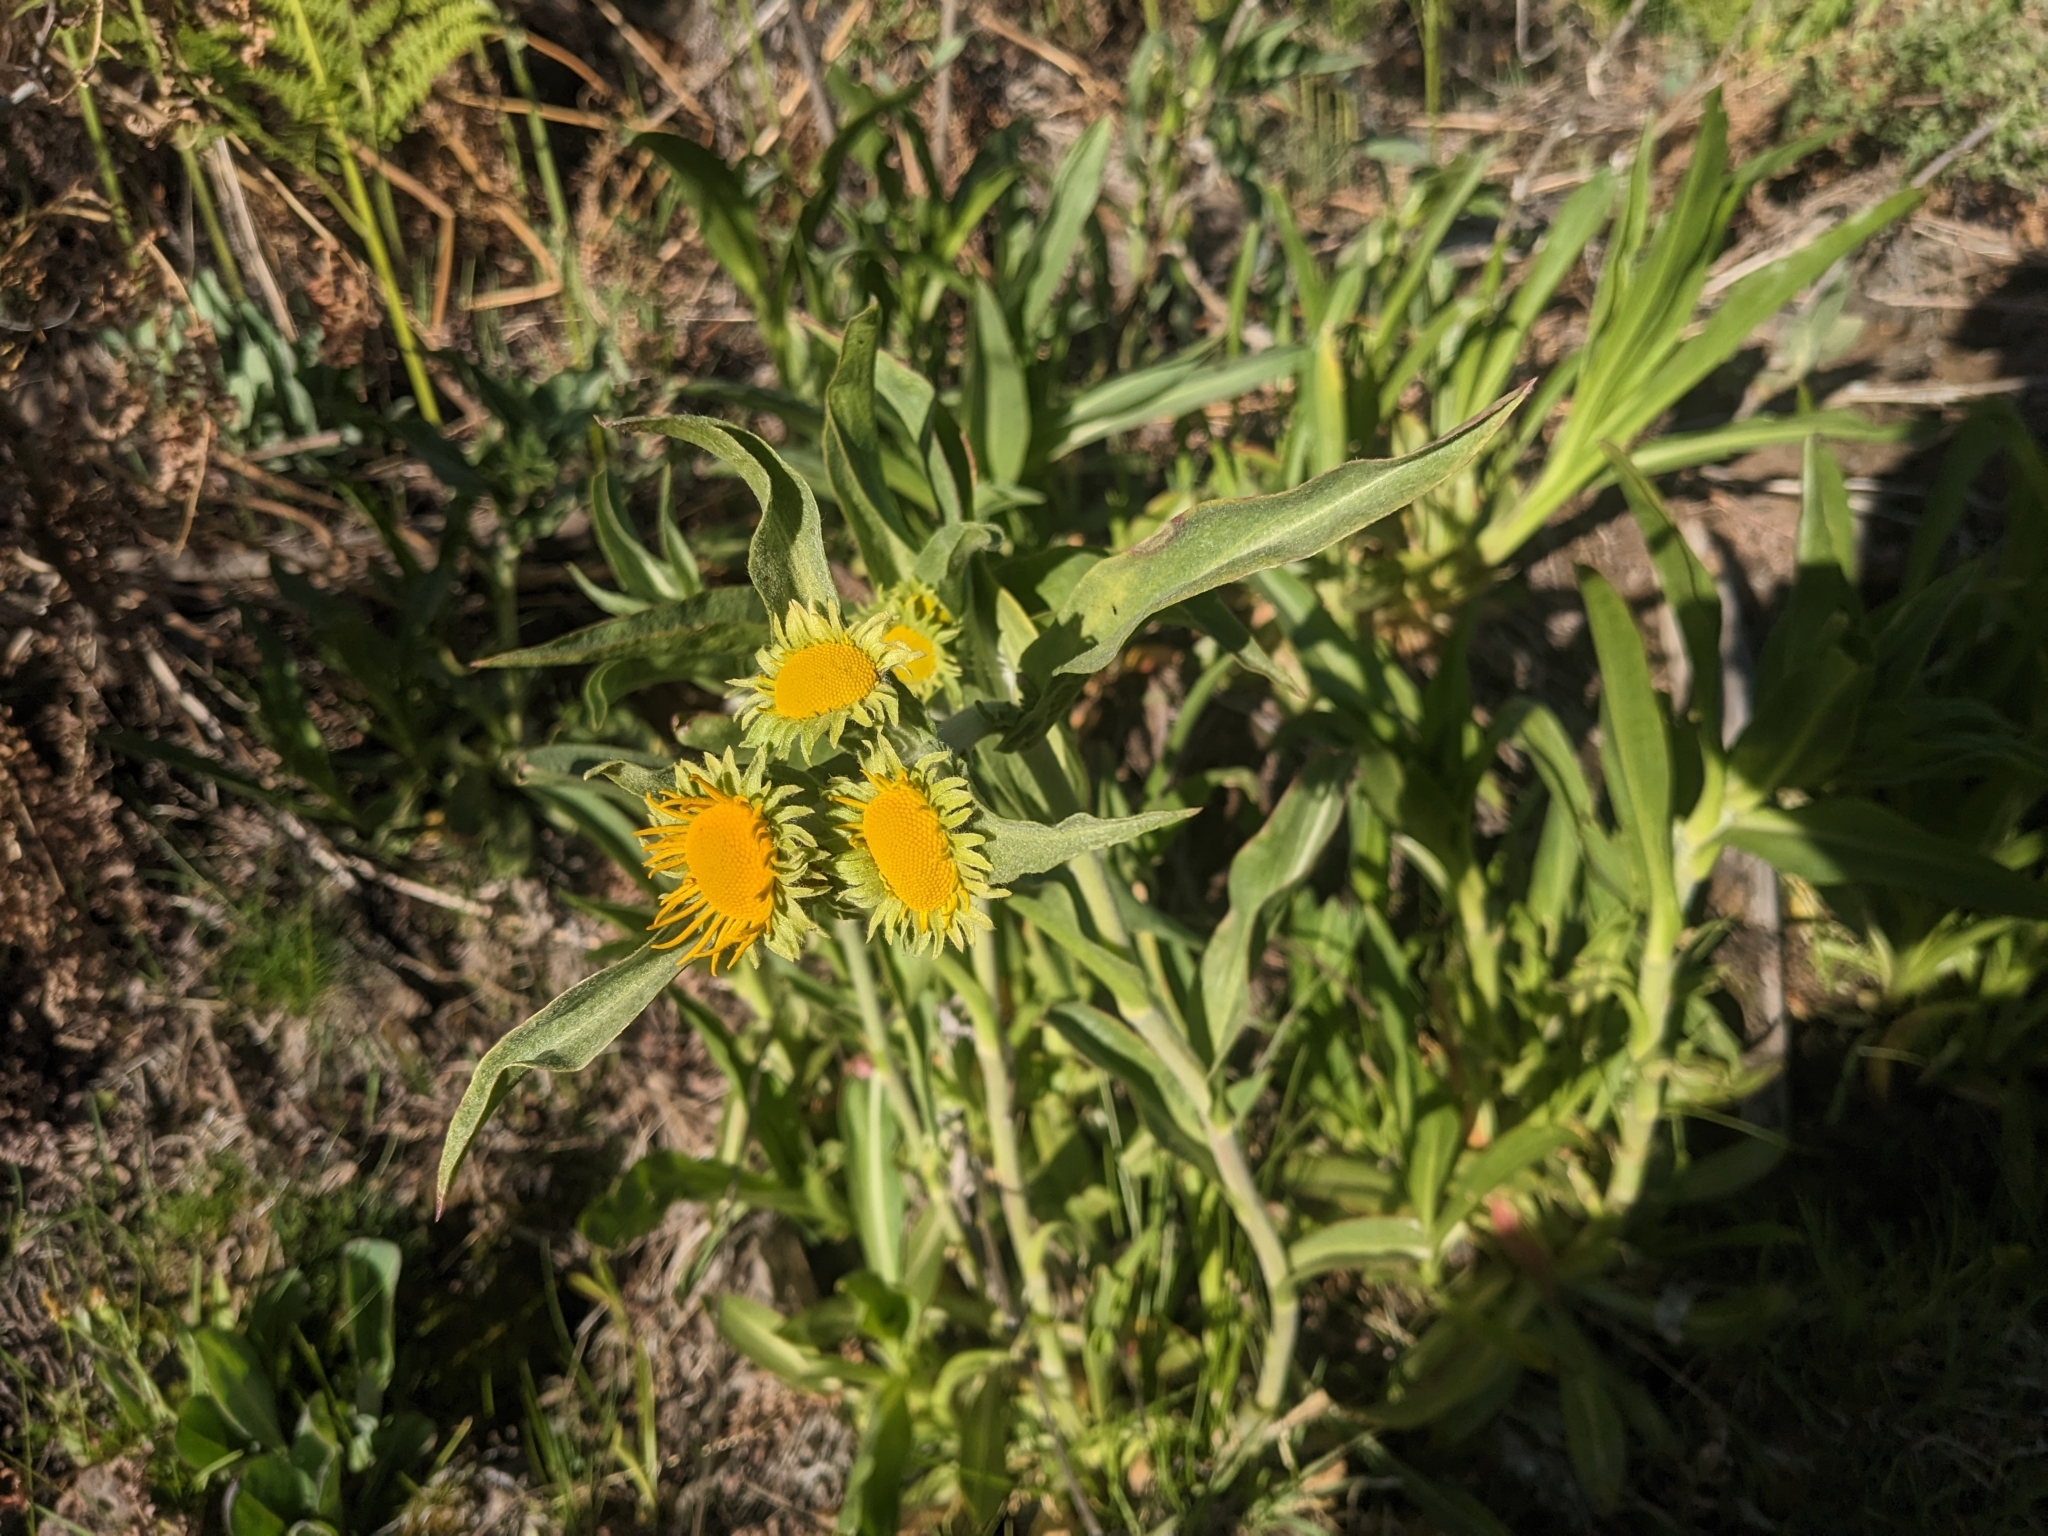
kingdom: Plantae
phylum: Tracheophyta
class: Magnoliopsida
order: Asterales
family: Asteraceae
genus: Hymenoxys
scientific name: Hymenoxys hoopesii
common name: Orange-sneezeweed
